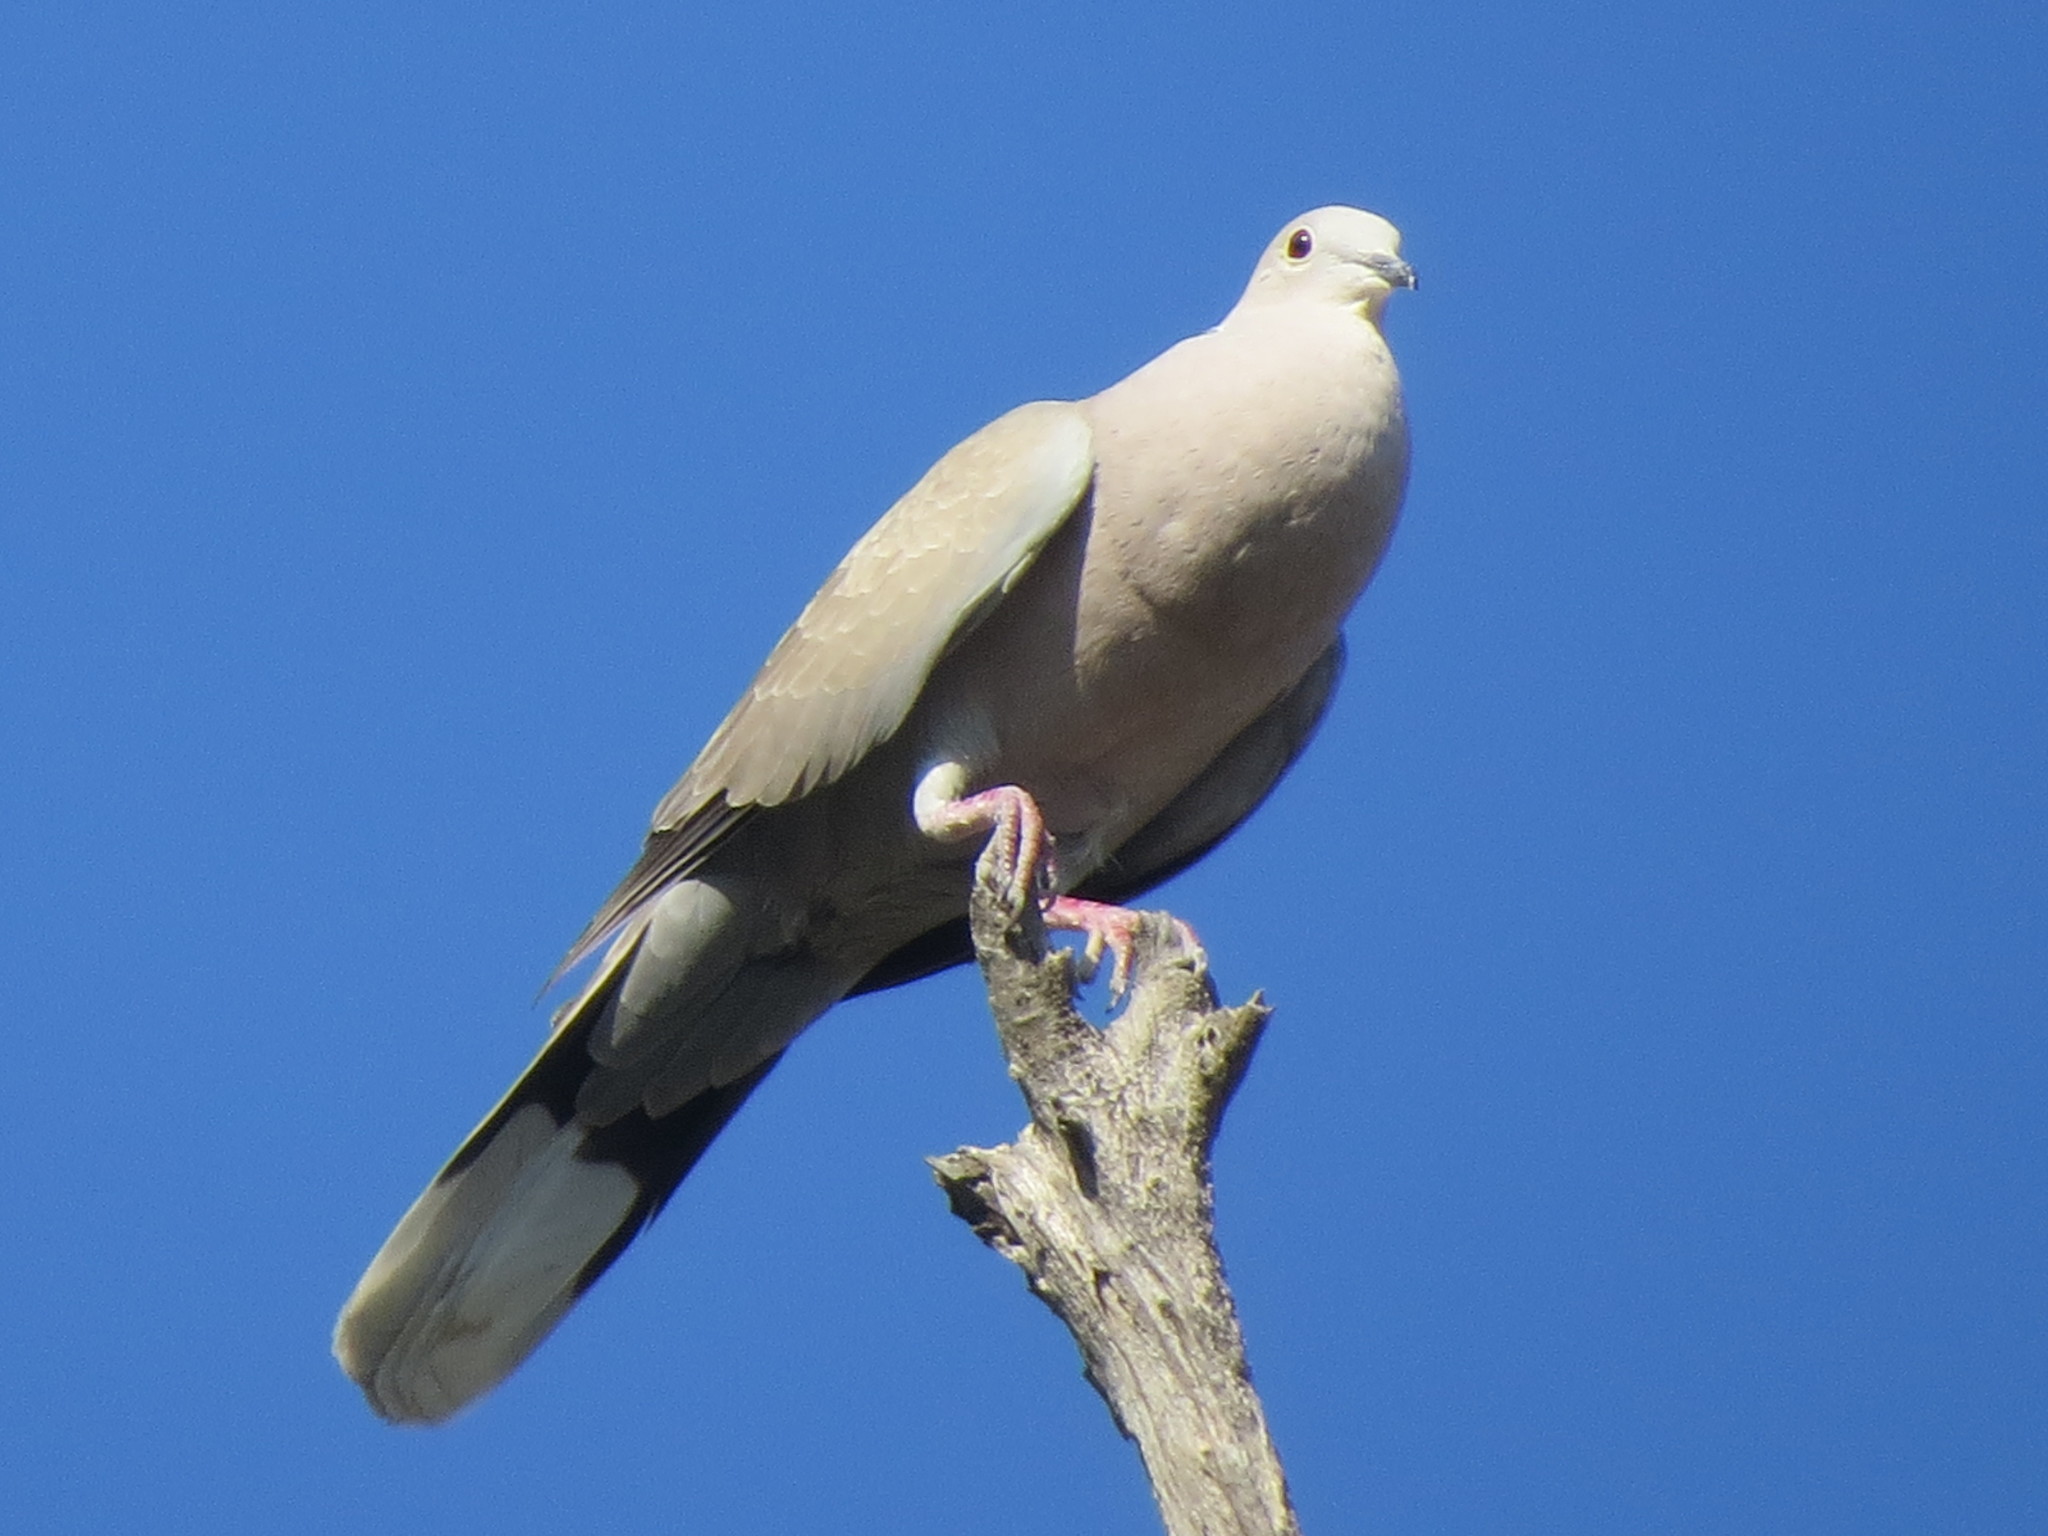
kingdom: Animalia
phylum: Chordata
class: Aves
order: Columbiformes
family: Columbidae
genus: Streptopelia
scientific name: Streptopelia decaocto
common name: Eurasian collared dove
